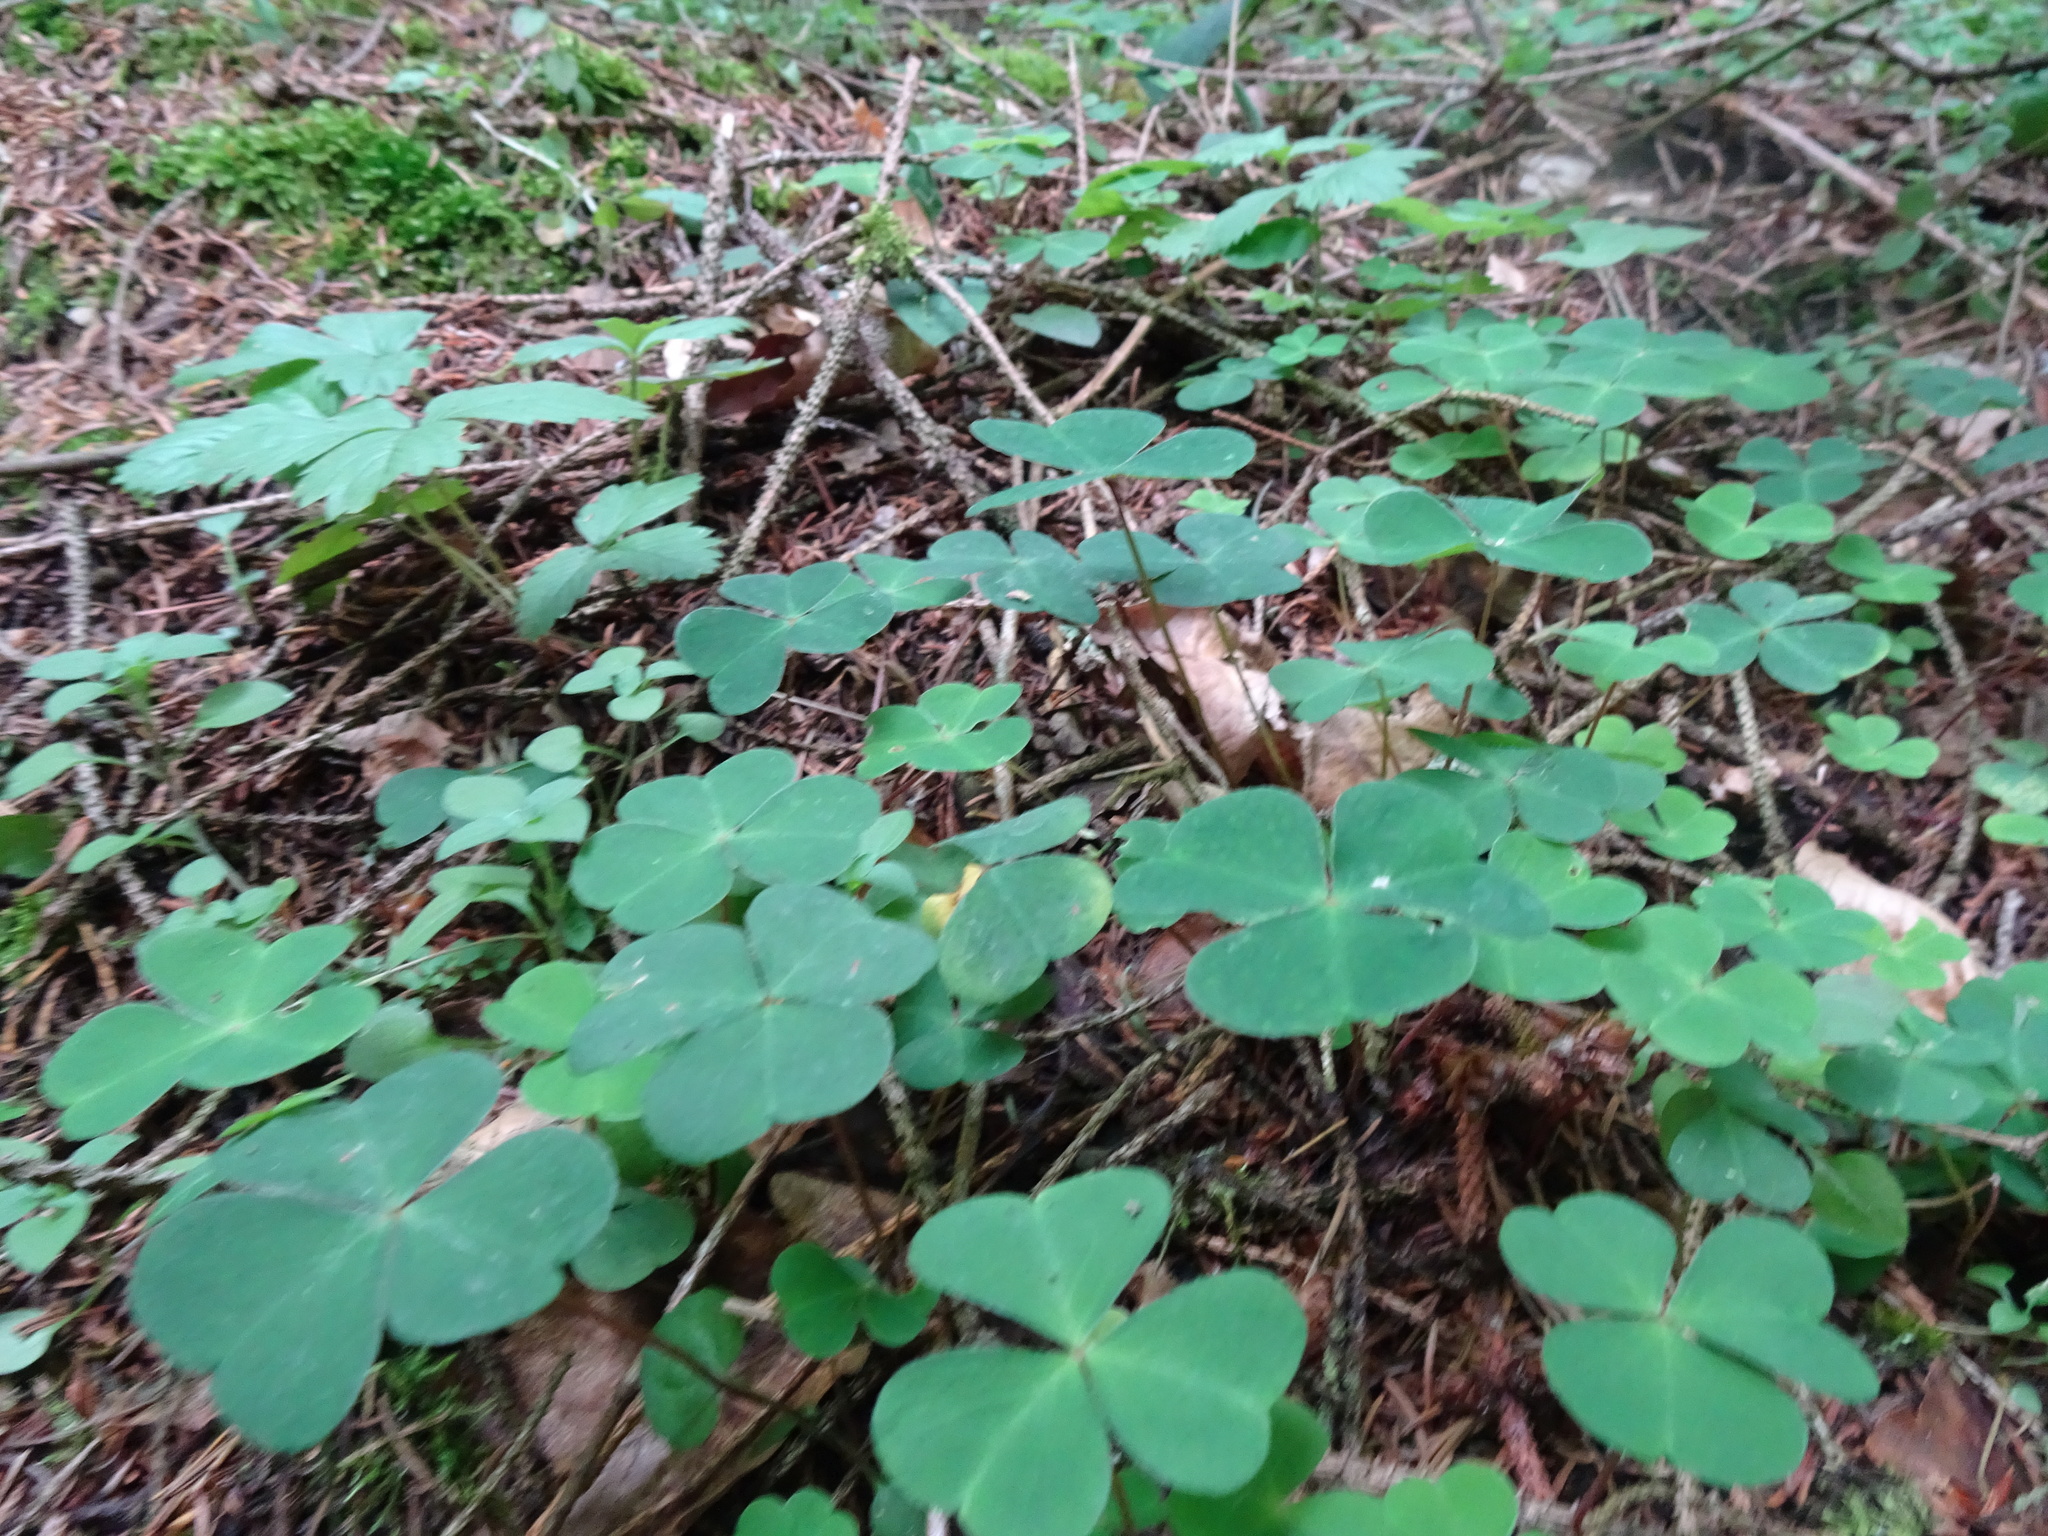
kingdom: Plantae
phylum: Tracheophyta
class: Magnoliopsida
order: Oxalidales
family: Oxalidaceae
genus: Oxalis
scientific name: Oxalis acetosella
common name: Wood-sorrel
